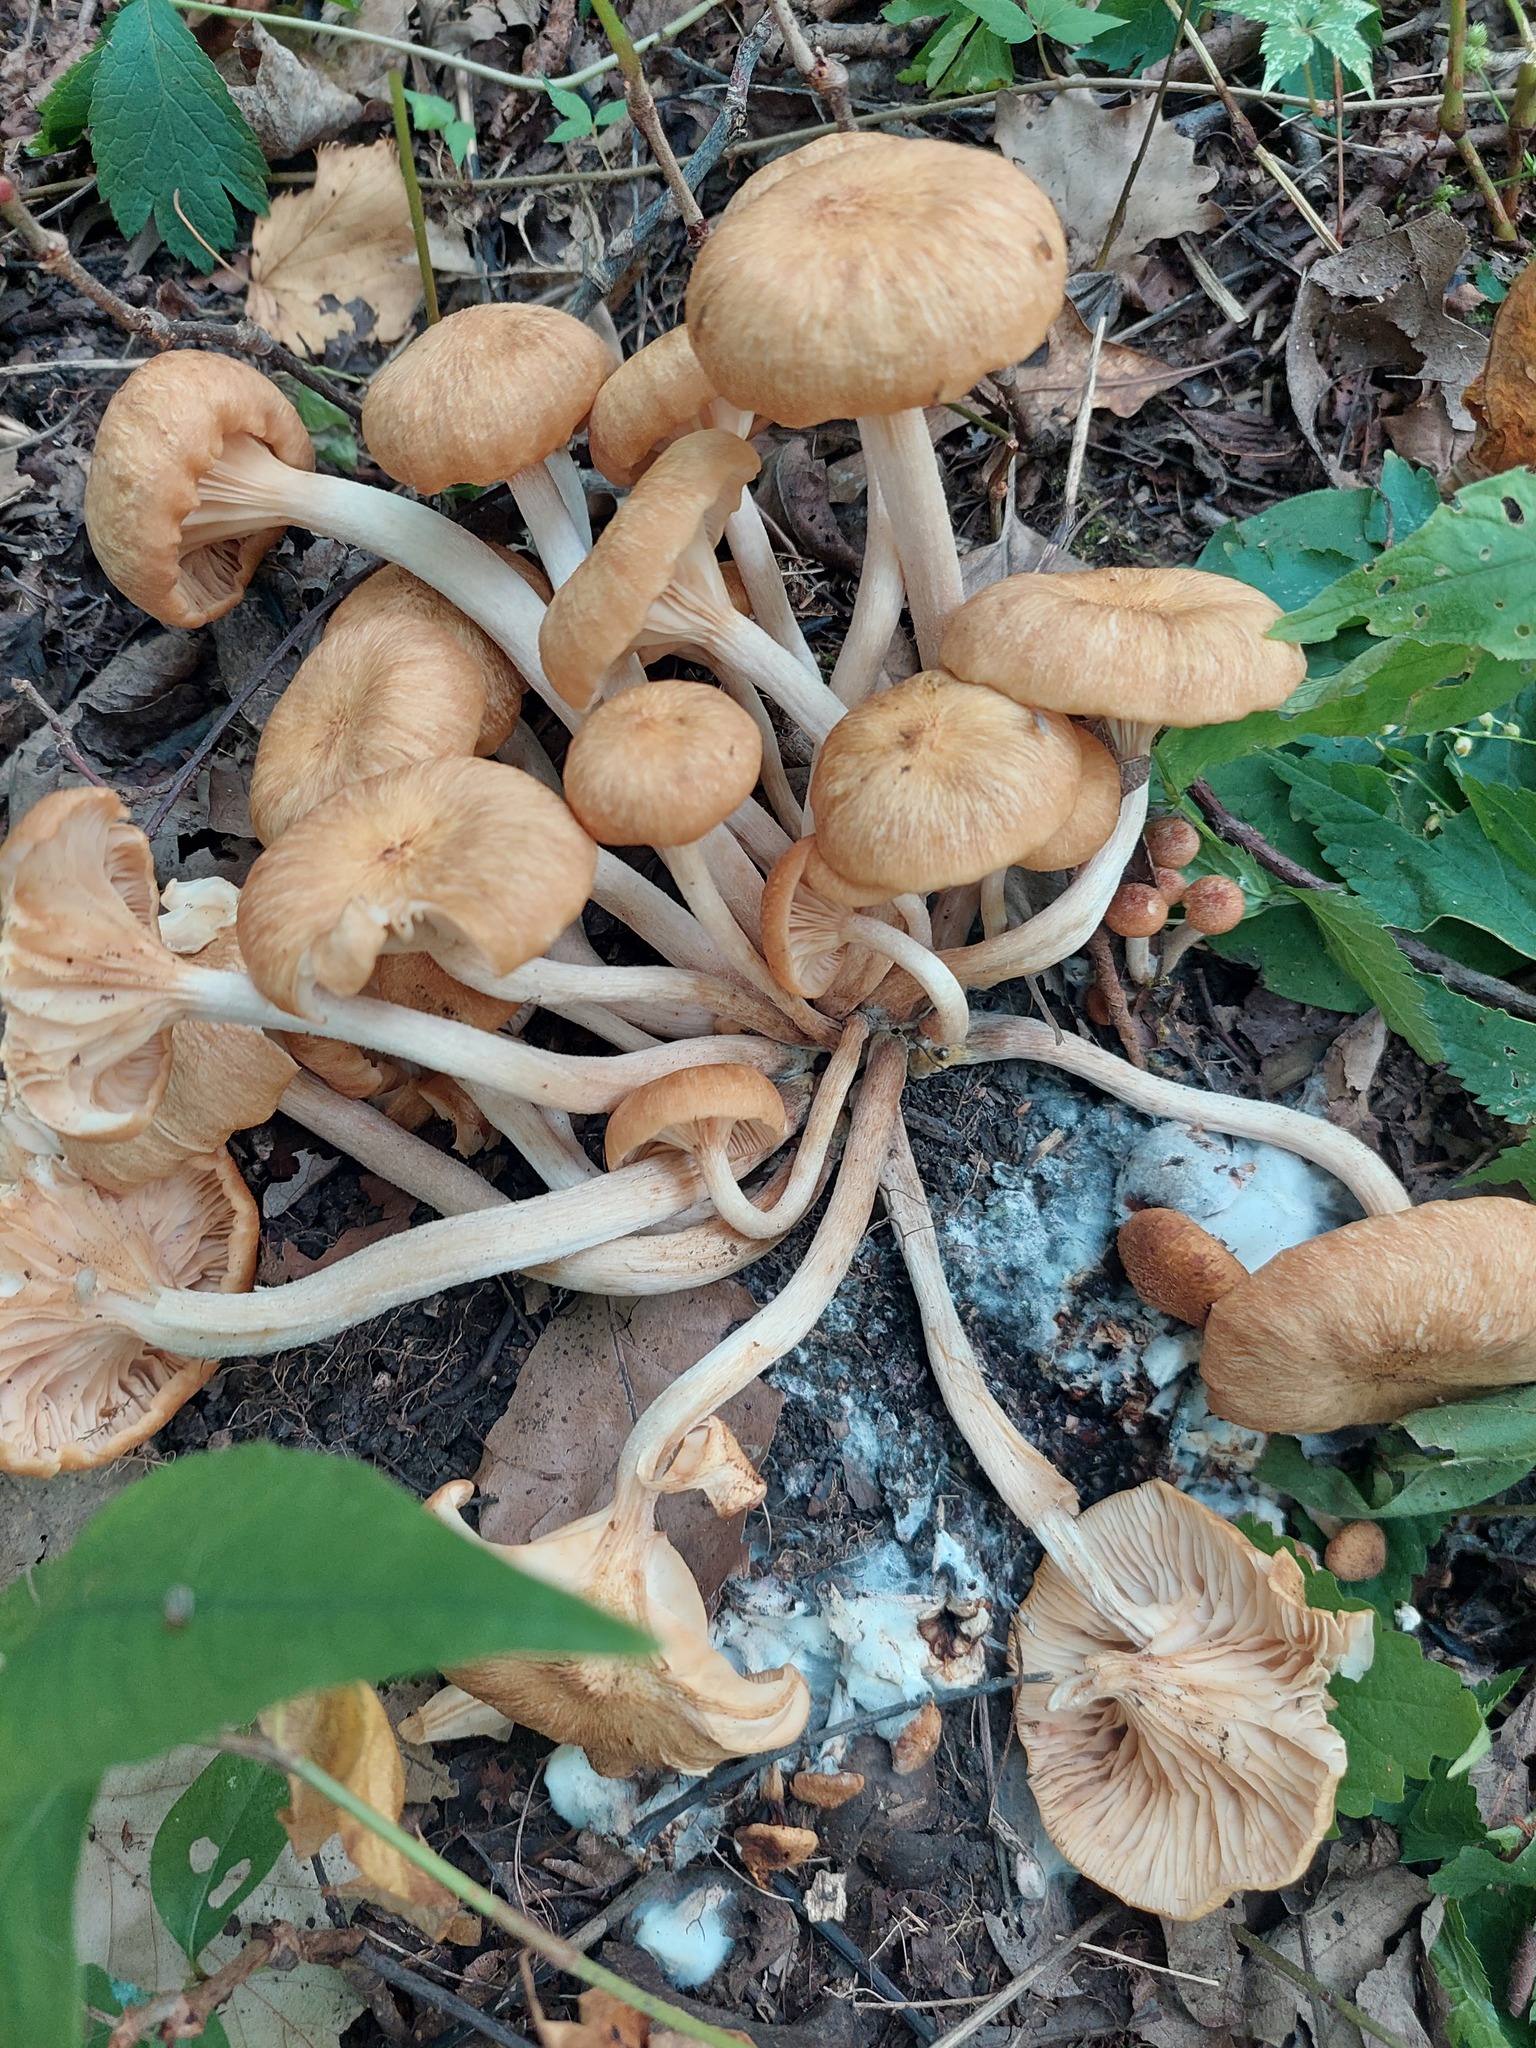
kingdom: Fungi
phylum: Basidiomycota
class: Agaricomycetes
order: Agaricales
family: Physalacriaceae
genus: Desarmillaria
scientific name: Desarmillaria caespitosa
